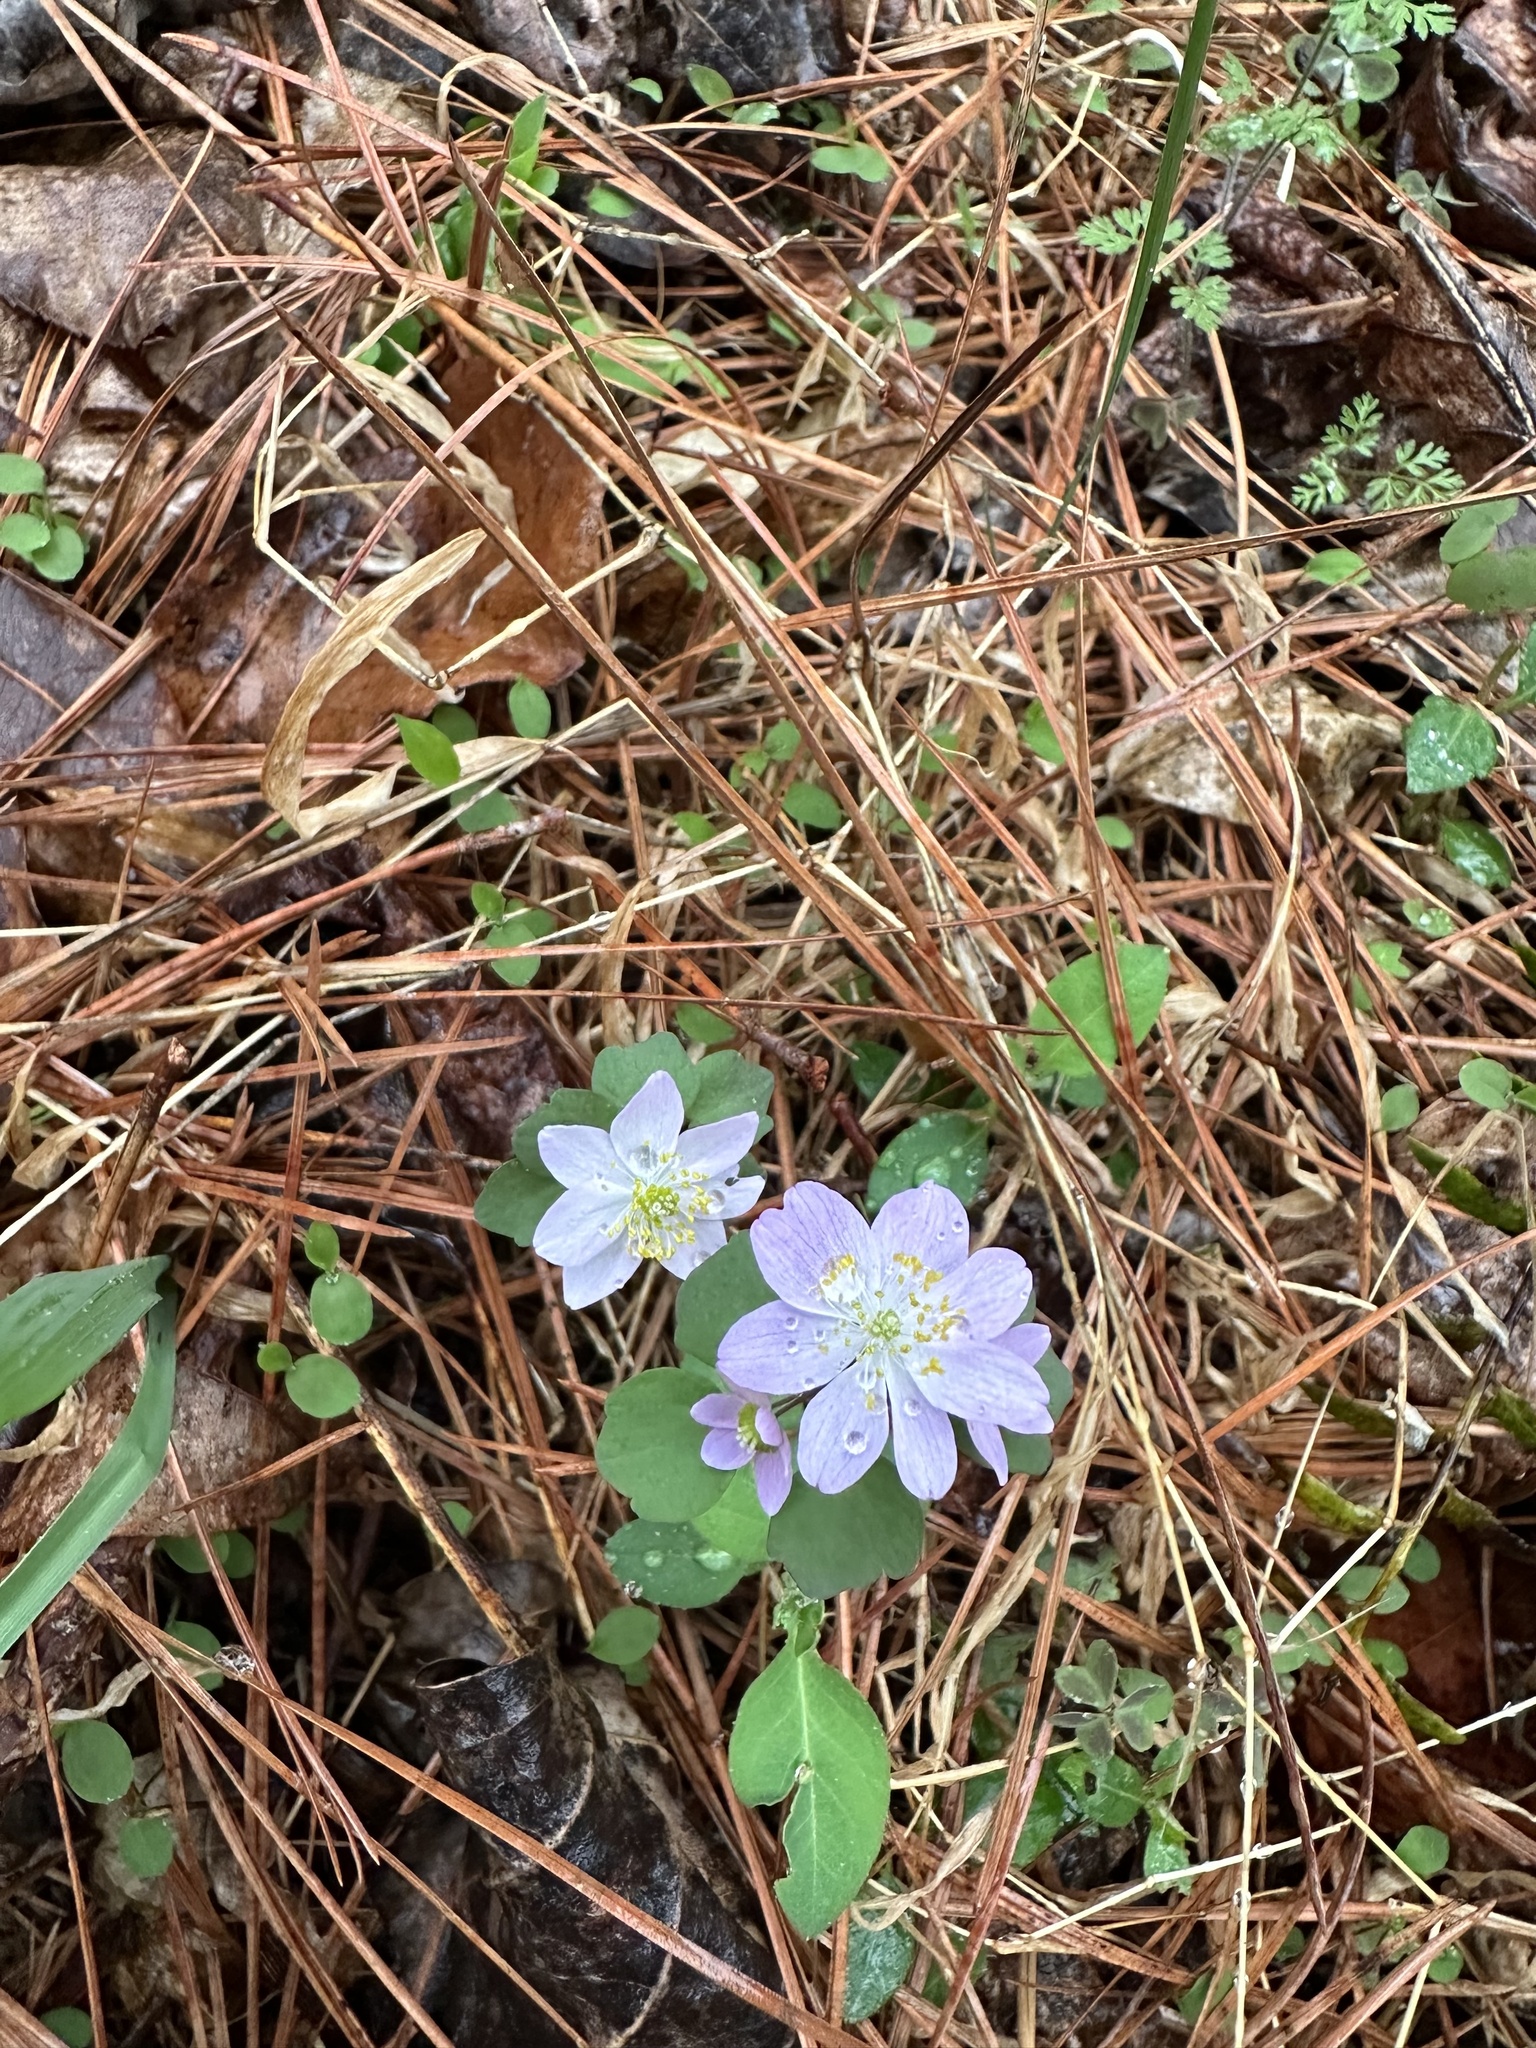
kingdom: Plantae
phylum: Tracheophyta
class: Magnoliopsida
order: Ranunculales
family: Ranunculaceae
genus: Thalictrum
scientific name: Thalictrum thalictroides
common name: Rue-anemone
